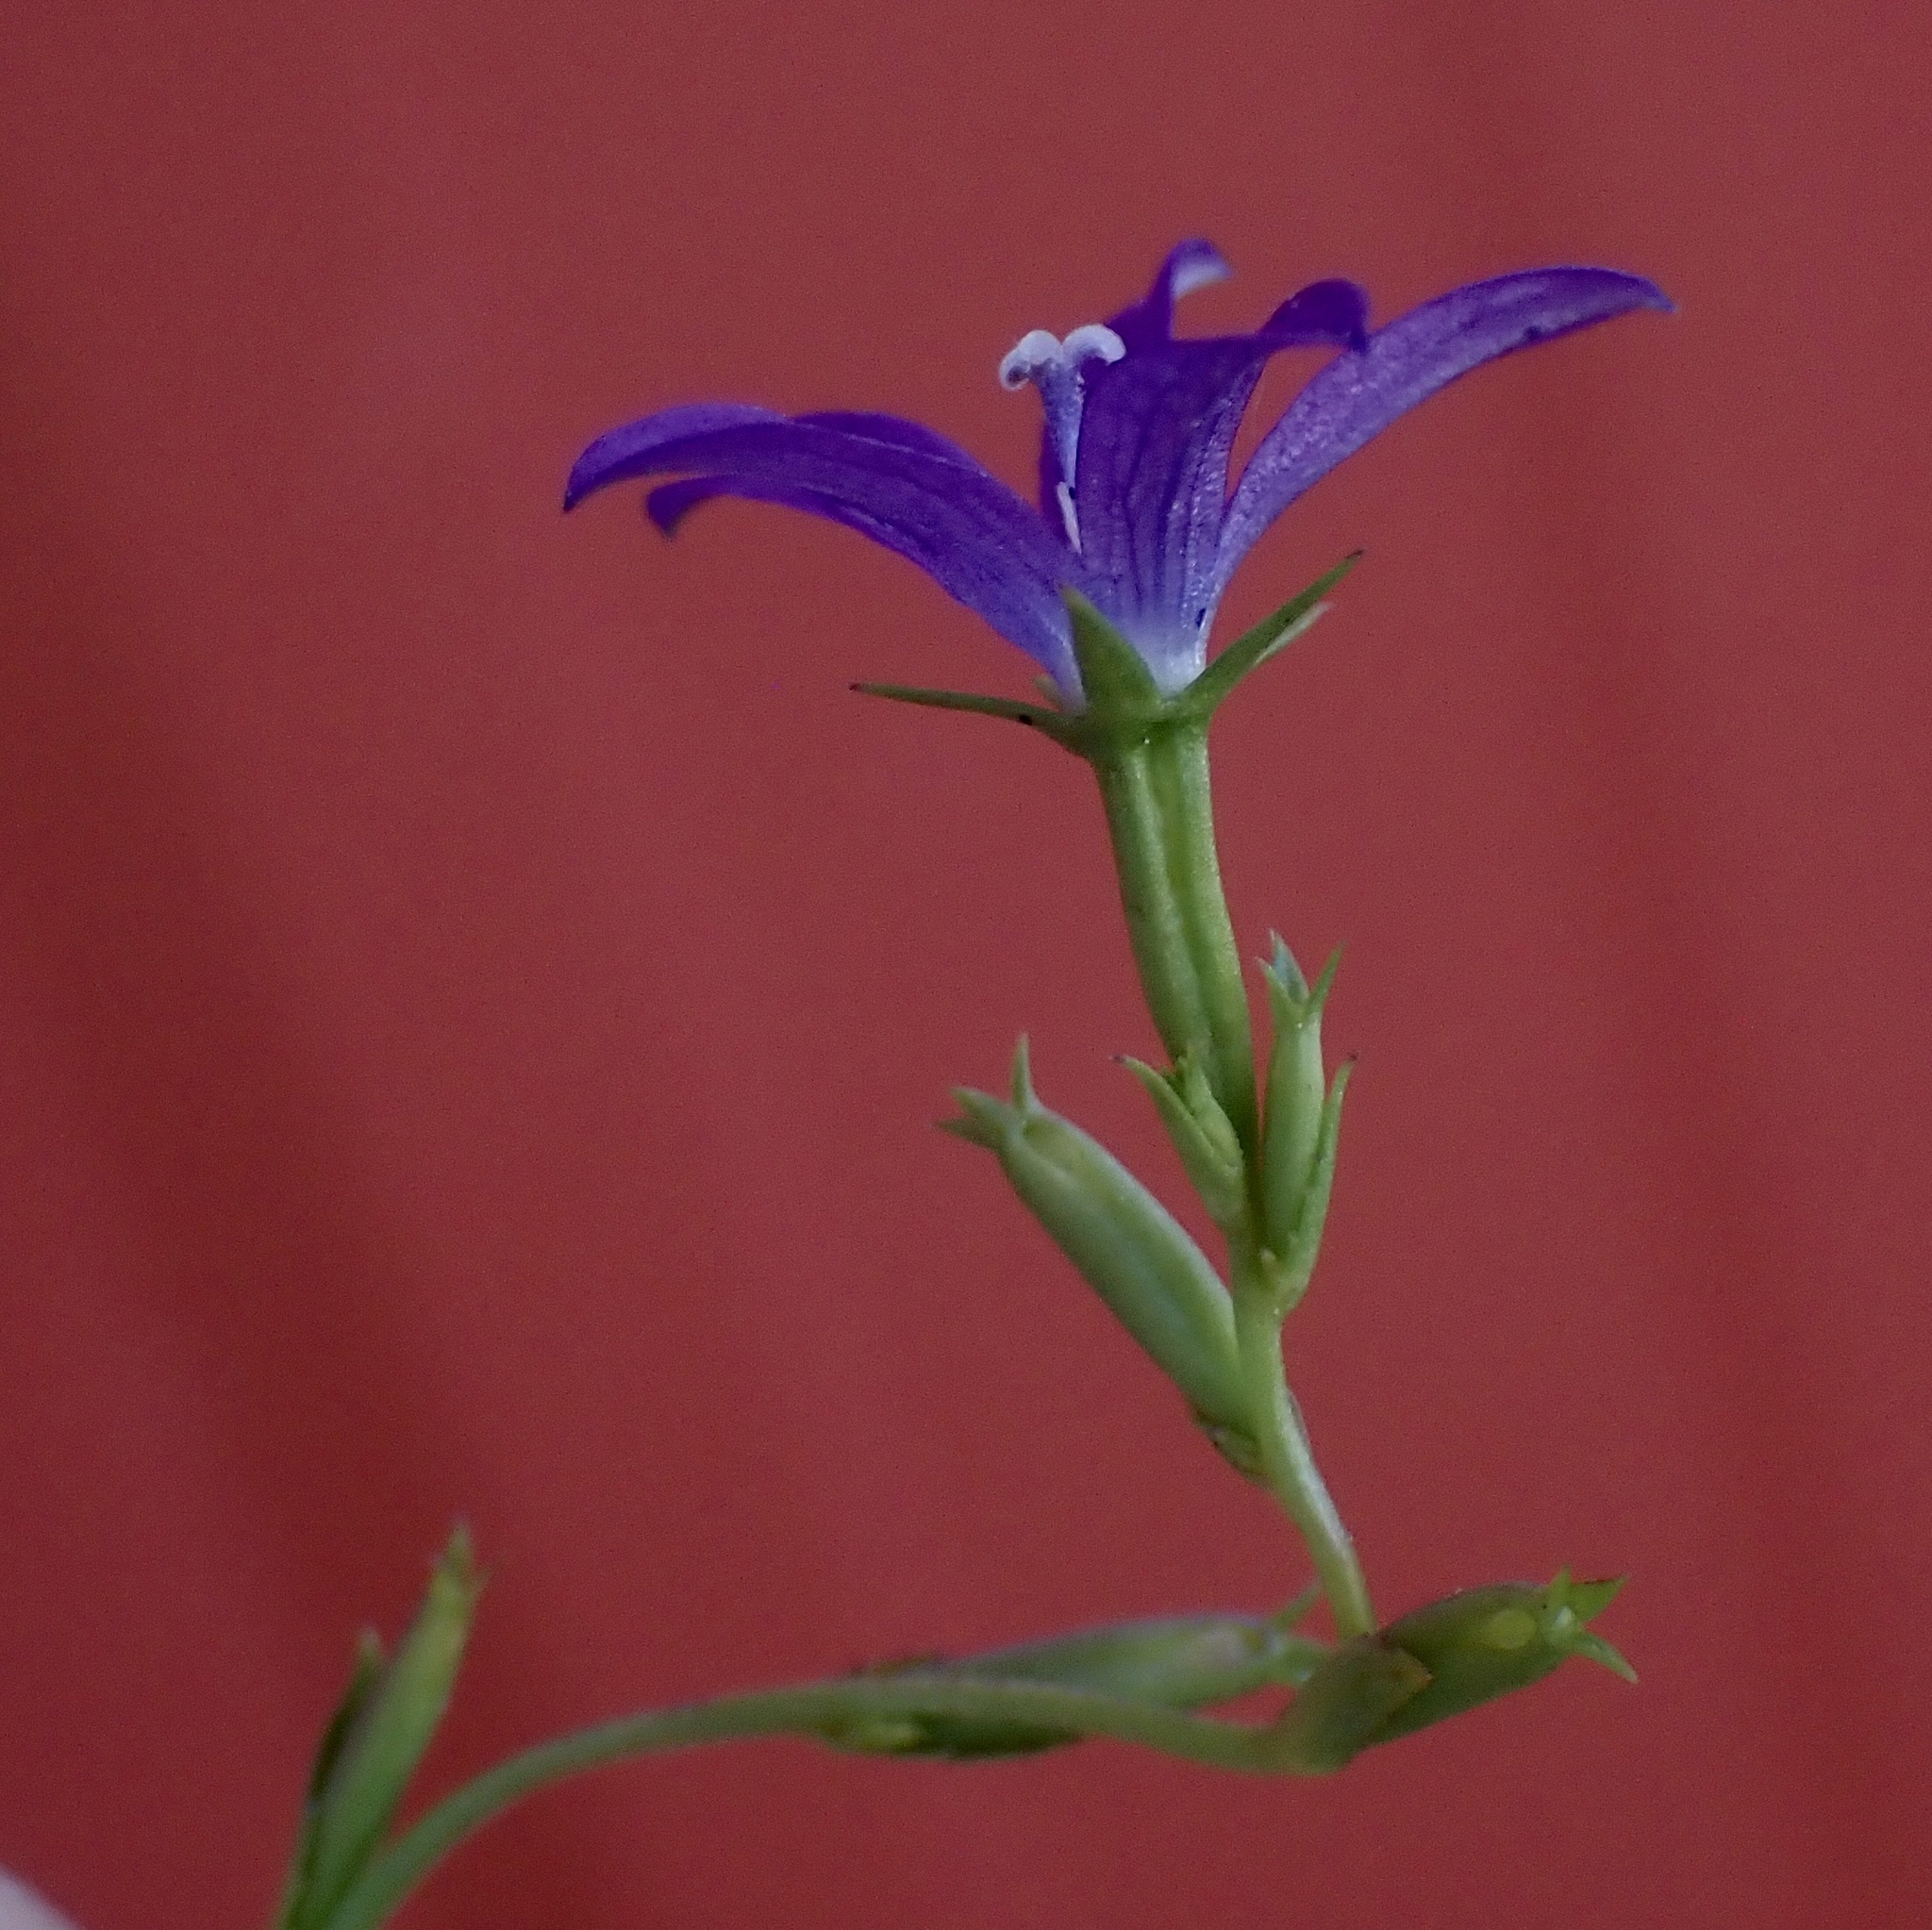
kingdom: Plantae
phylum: Tracheophyta
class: Magnoliopsida
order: Asterales
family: Campanulaceae
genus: Triodanis
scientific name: Triodanis biflora
